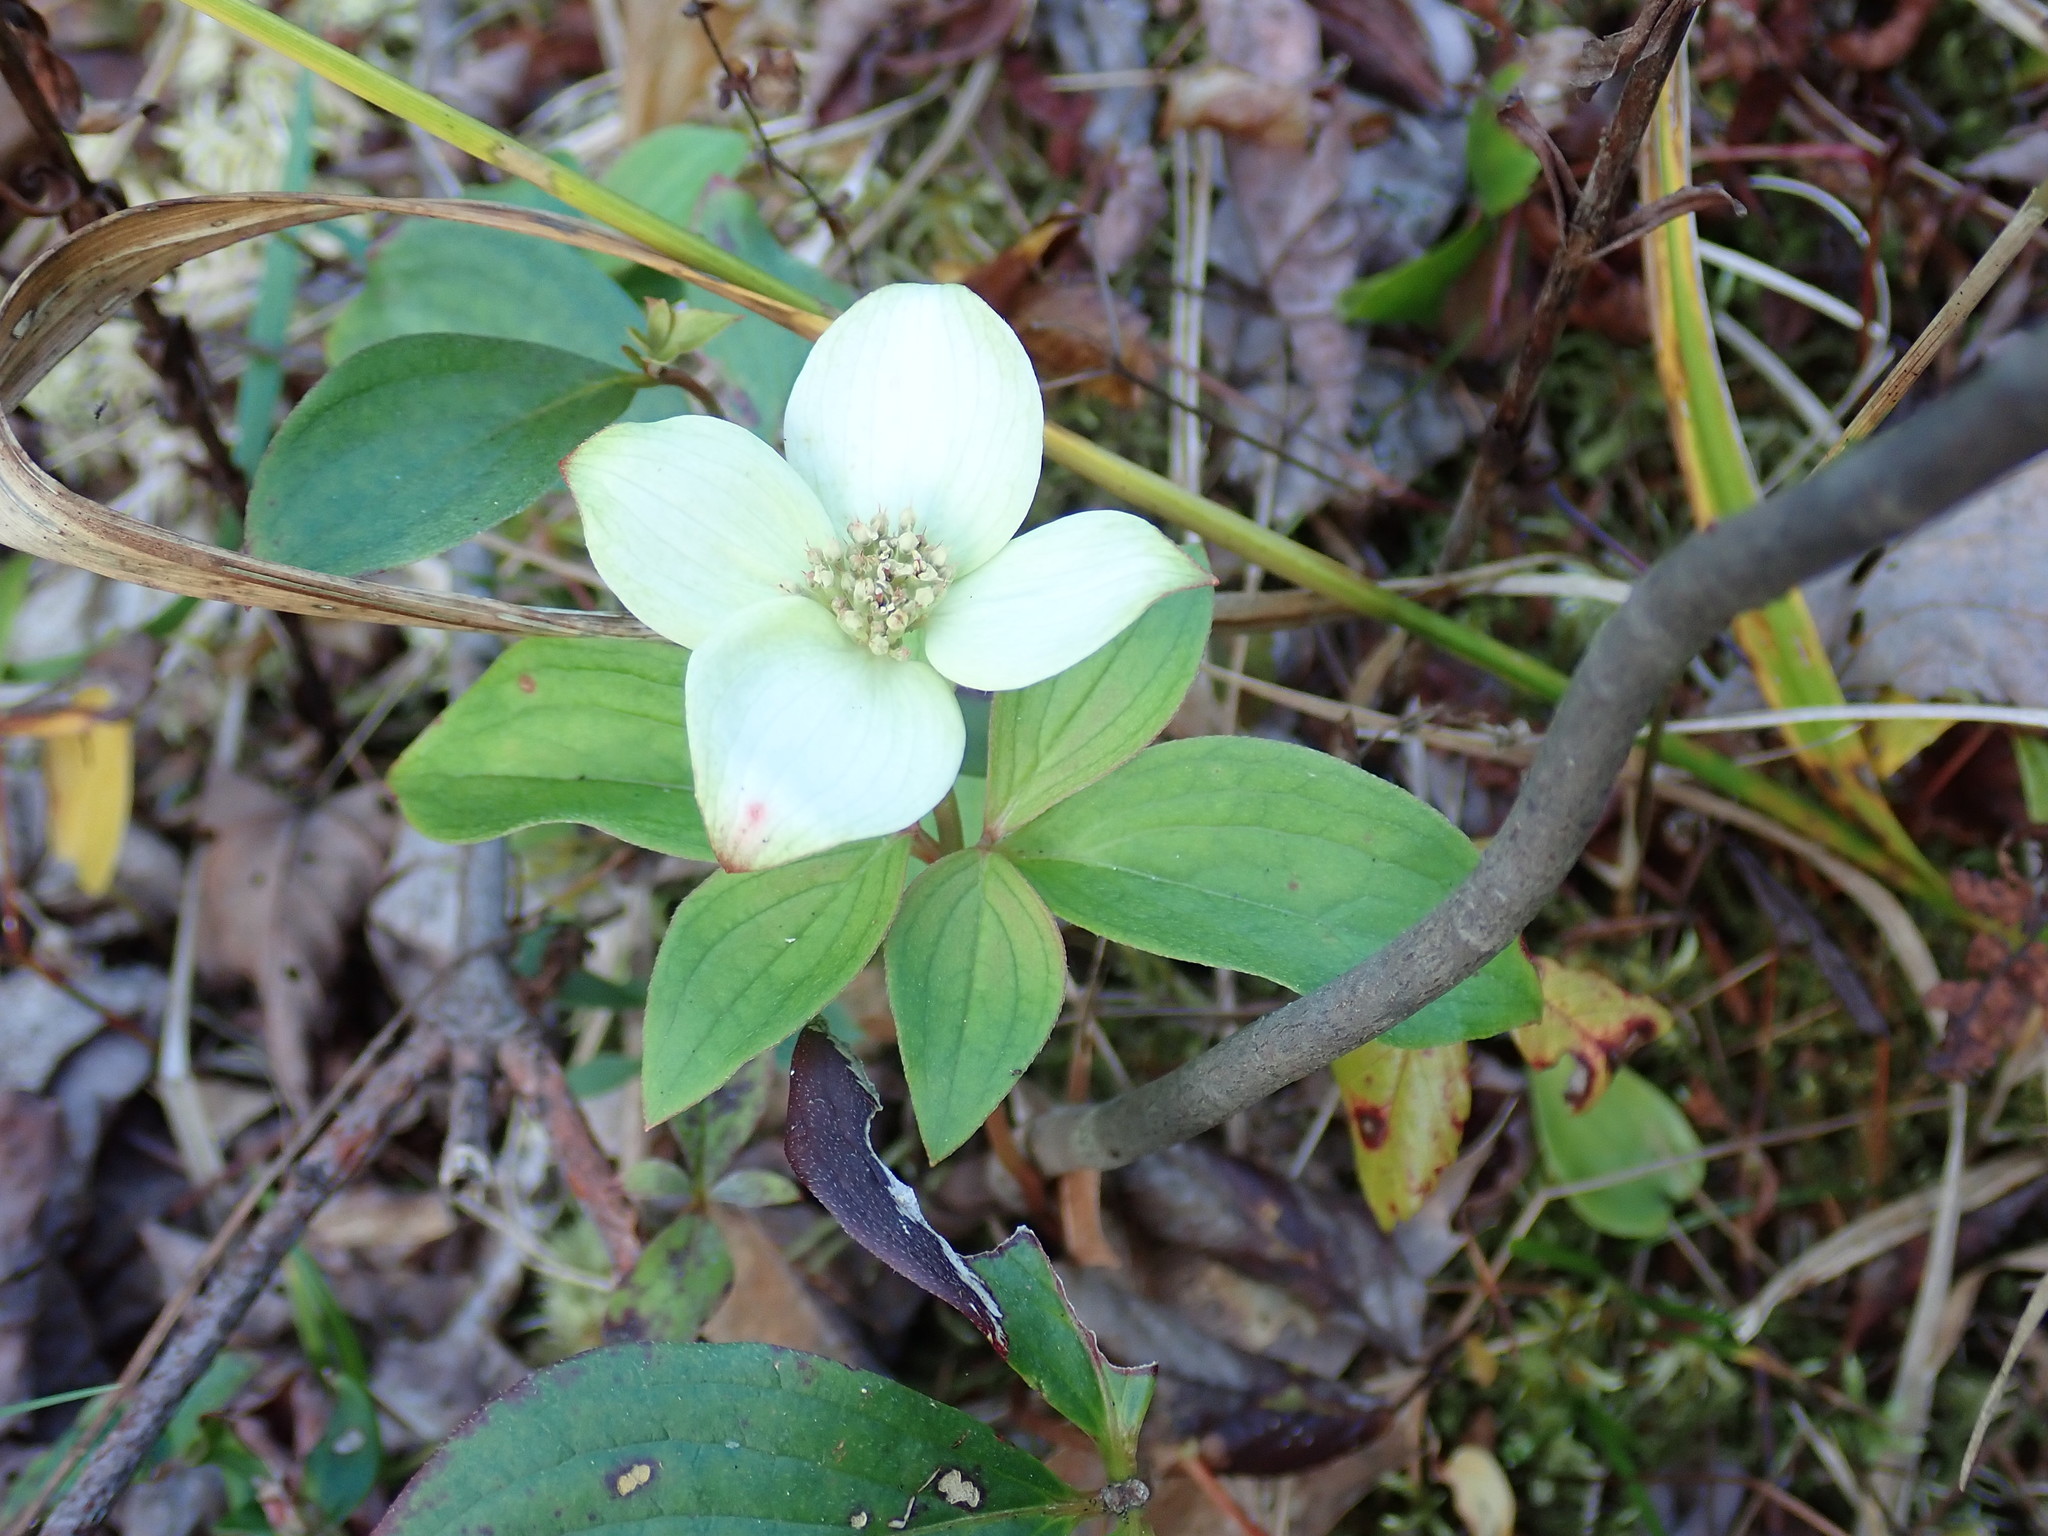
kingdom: Plantae
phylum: Tracheophyta
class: Magnoliopsida
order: Cornales
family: Cornaceae
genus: Cornus
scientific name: Cornus canadensis
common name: Creeping dogwood
